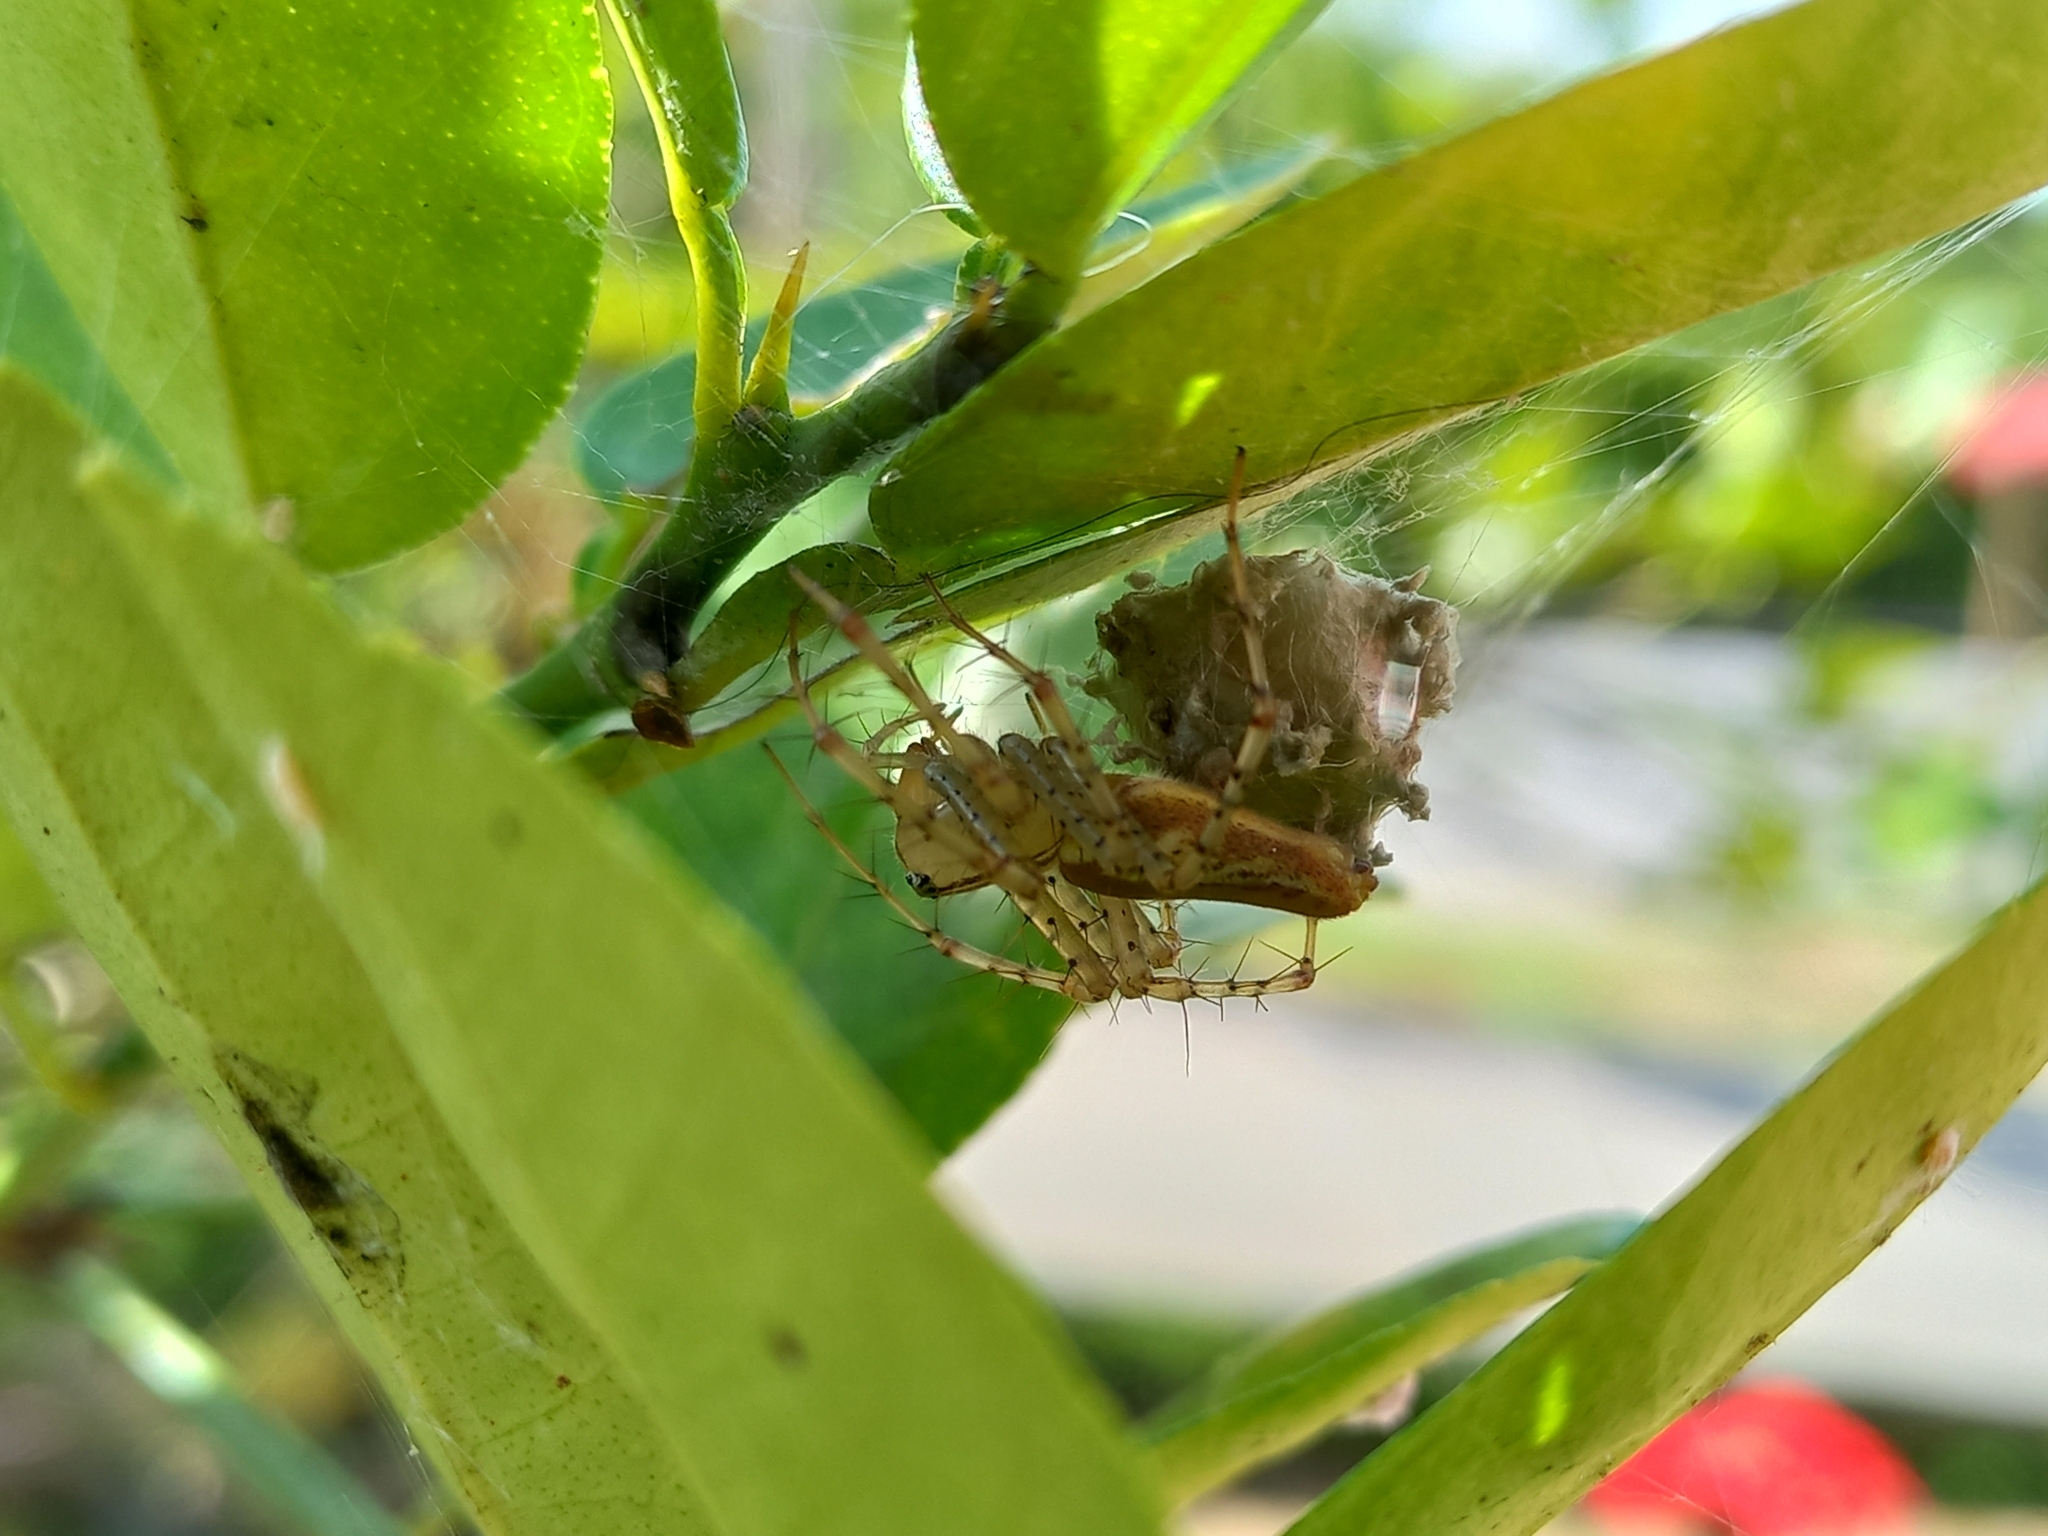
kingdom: Animalia
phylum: Arthropoda
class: Arachnida
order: Araneae
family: Oxyopidae
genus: Peucetia
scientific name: Peucetia rubrolineata
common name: Lynx spiders
